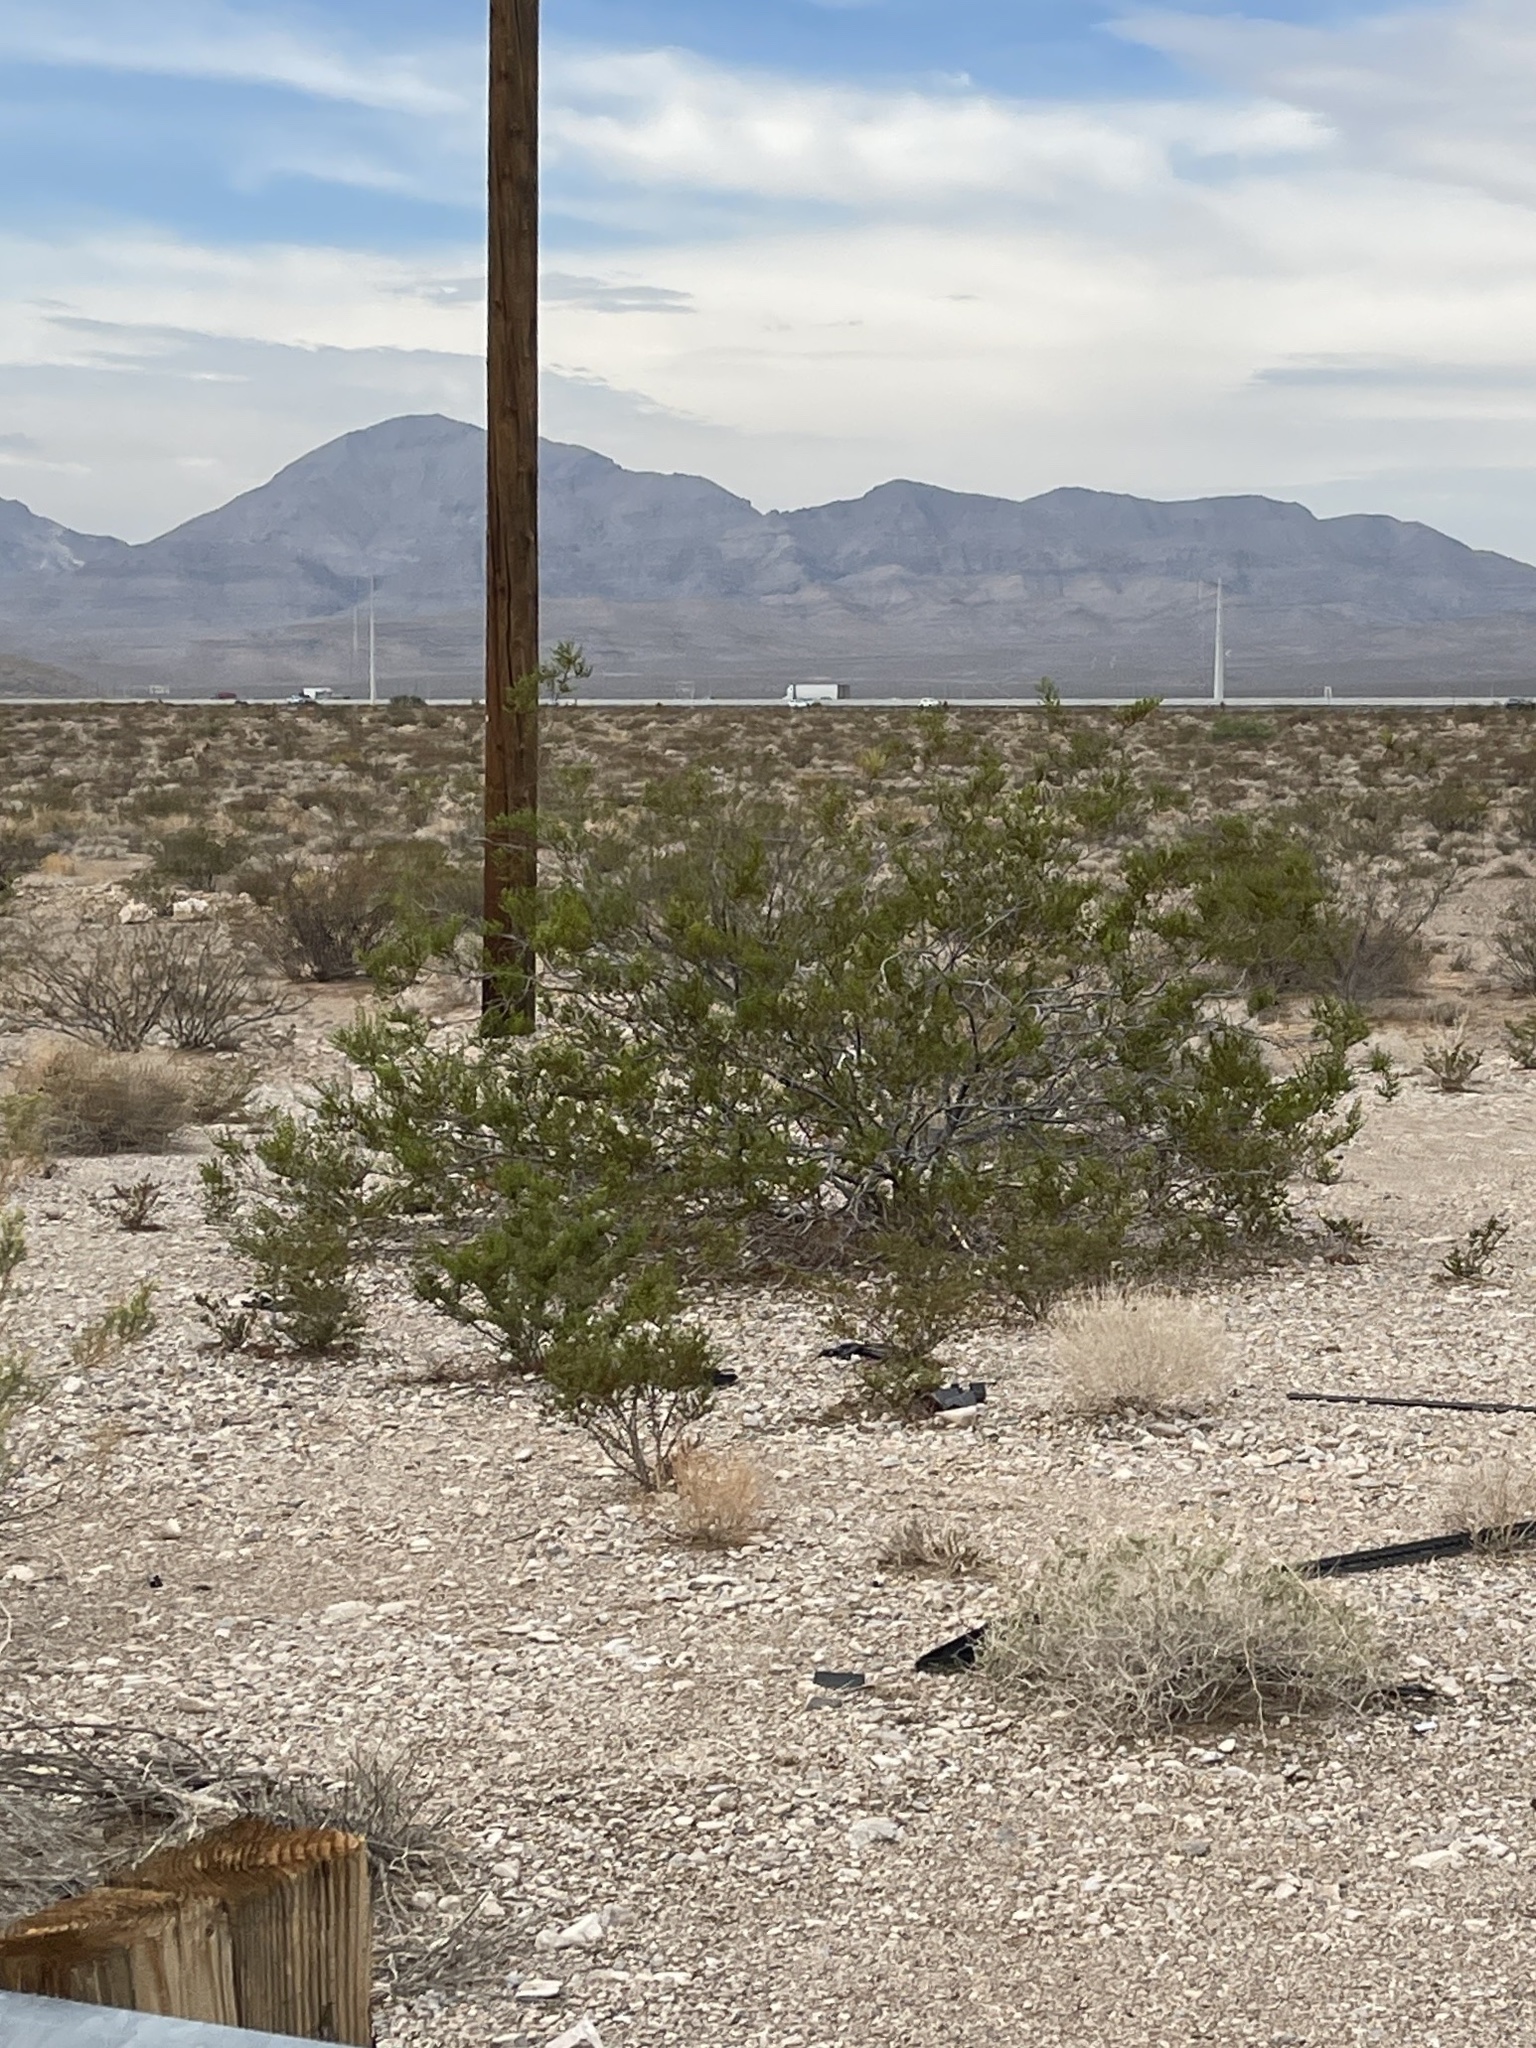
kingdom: Plantae
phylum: Tracheophyta
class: Magnoliopsida
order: Zygophyllales
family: Zygophyllaceae
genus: Larrea
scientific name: Larrea tridentata
